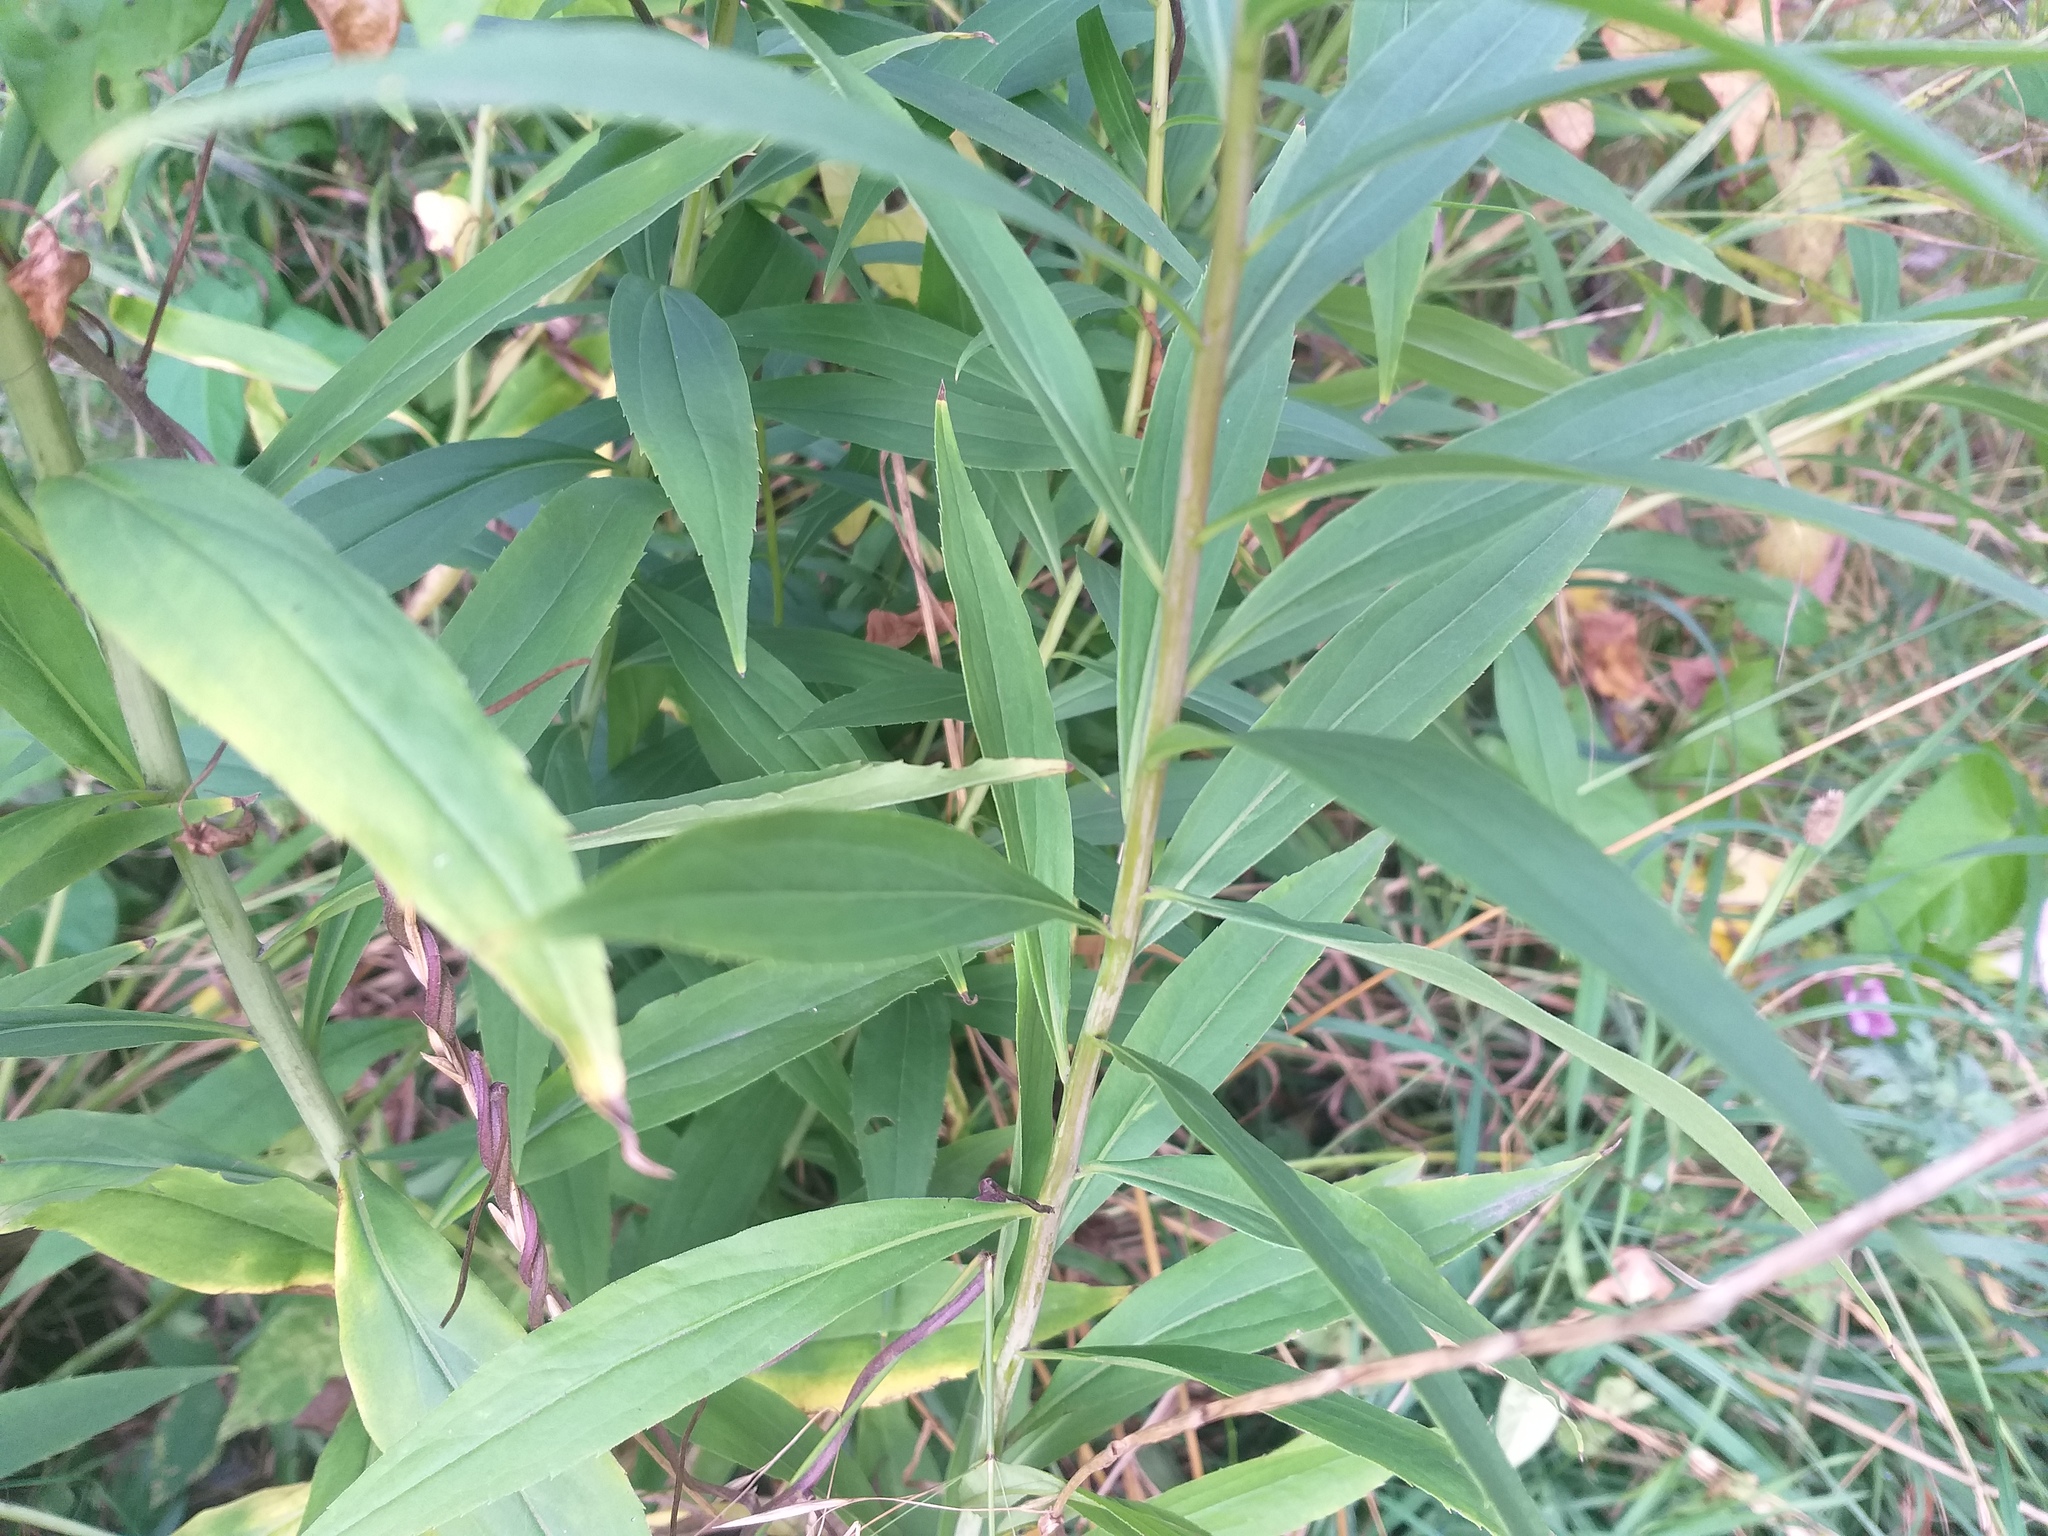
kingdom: Plantae
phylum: Tracheophyta
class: Magnoliopsida
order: Asterales
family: Asteraceae
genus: Solidago
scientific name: Solidago gigantea
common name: Giant goldenrod
